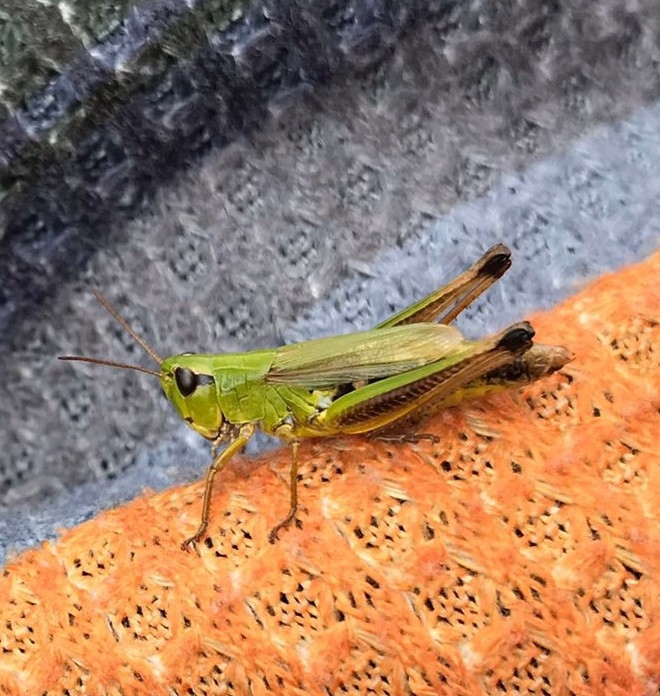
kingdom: Animalia
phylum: Arthropoda
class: Insecta
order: Orthoptera
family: Acrididae
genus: Pseudochorthippus
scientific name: Pseudochorthippus montanus
